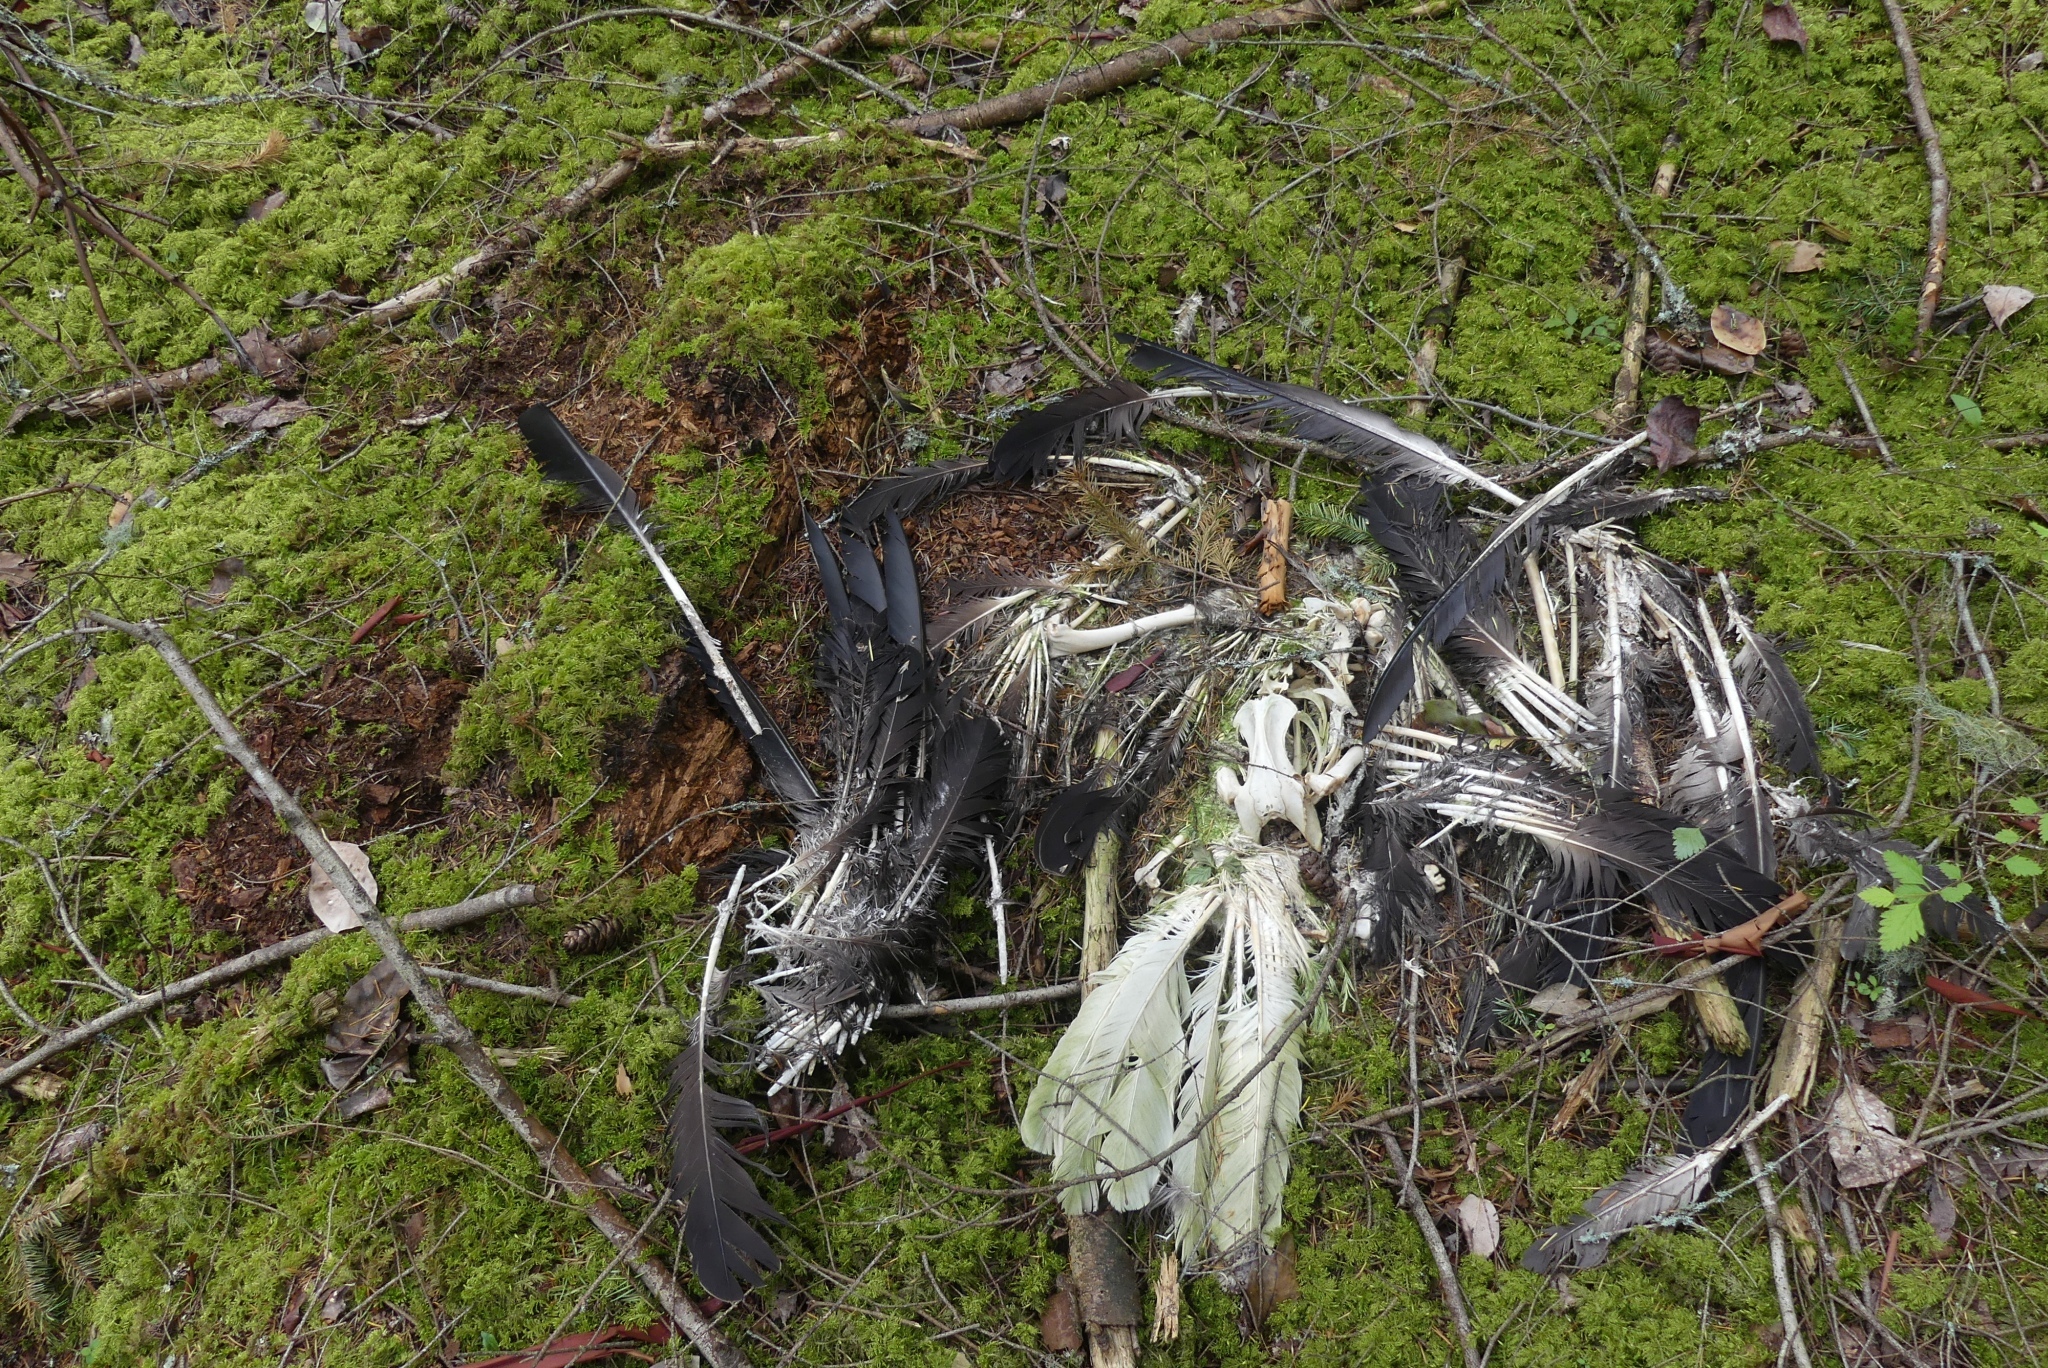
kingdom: Animalia
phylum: Chordata
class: Aves
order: Accipitriformes
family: Accipitridae
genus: Haliaeetus
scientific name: Haliaeetus leucocephalus
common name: Bald eagle
